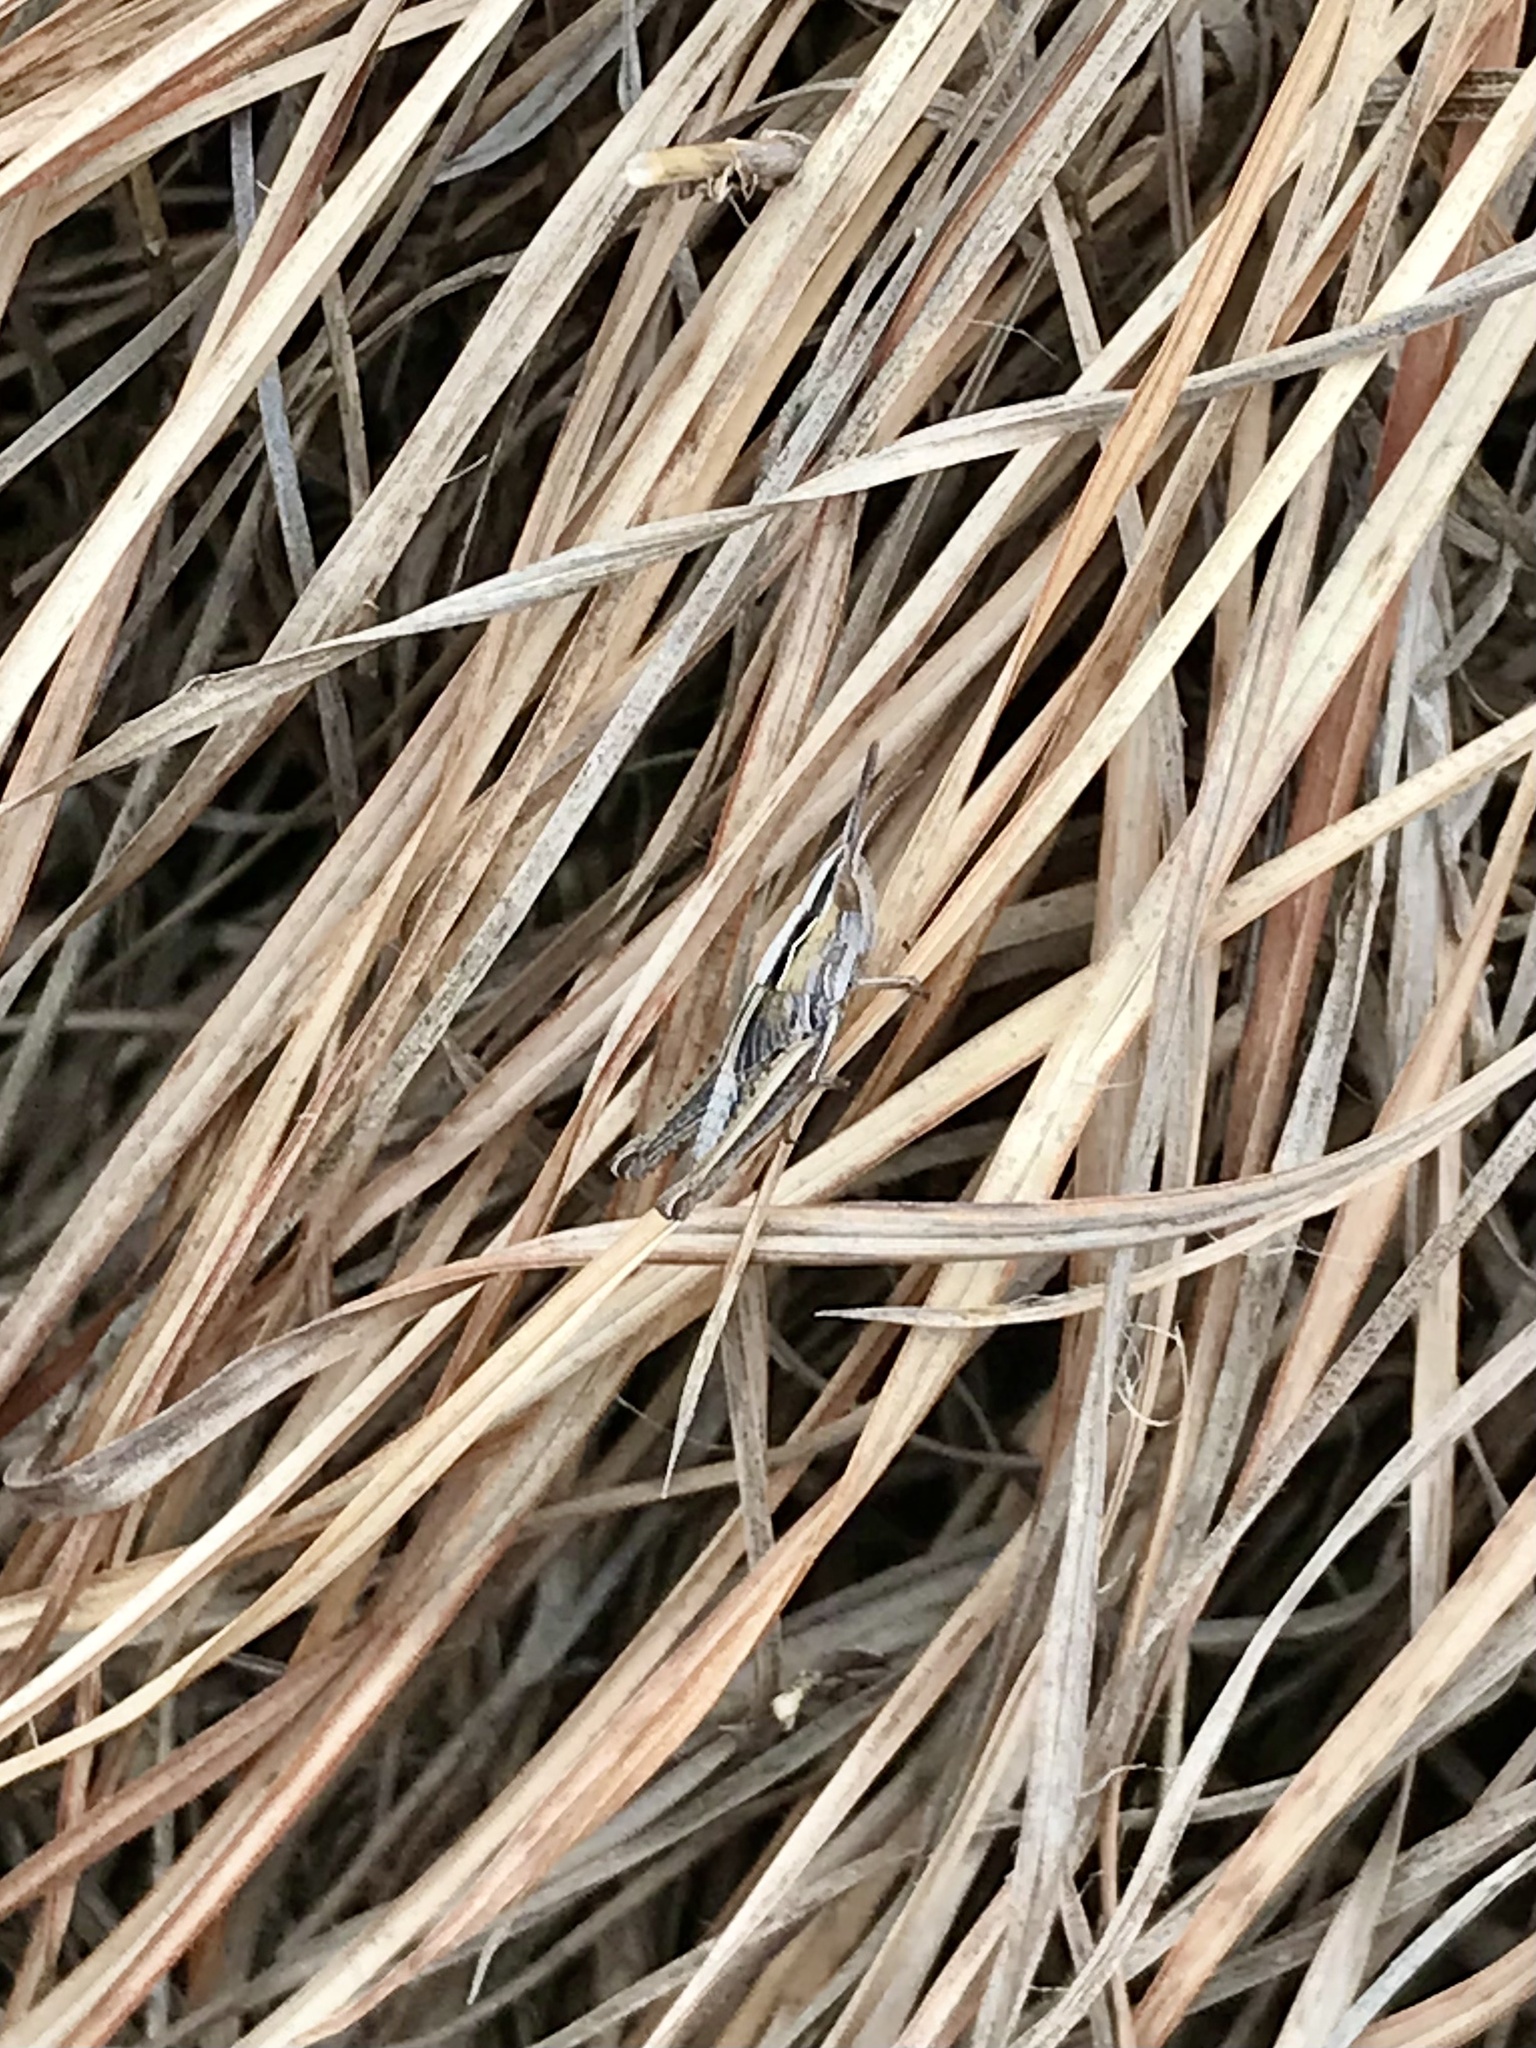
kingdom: Animalia
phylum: Arthropoda
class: Insecta
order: Orthoptera
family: Acrididae
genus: Eritettix
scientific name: Eritettix simplex
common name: Velvet-striped grasshopper
